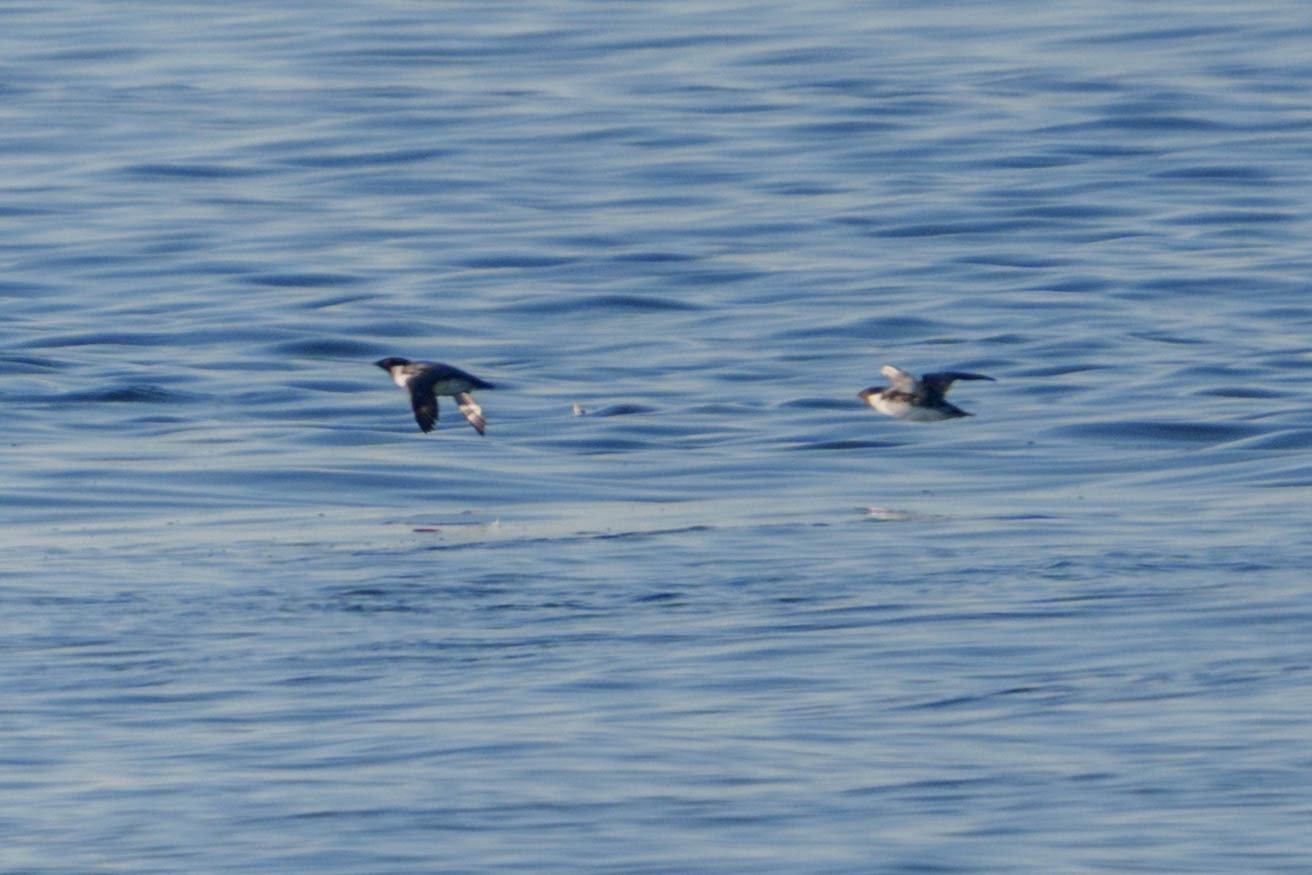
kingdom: Animalia
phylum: Chordata
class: Aves
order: Charadriiformes
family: Alcidae
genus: Synthliboramphus
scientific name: Synthliboramphus antiquus
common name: Ancient murrelet
